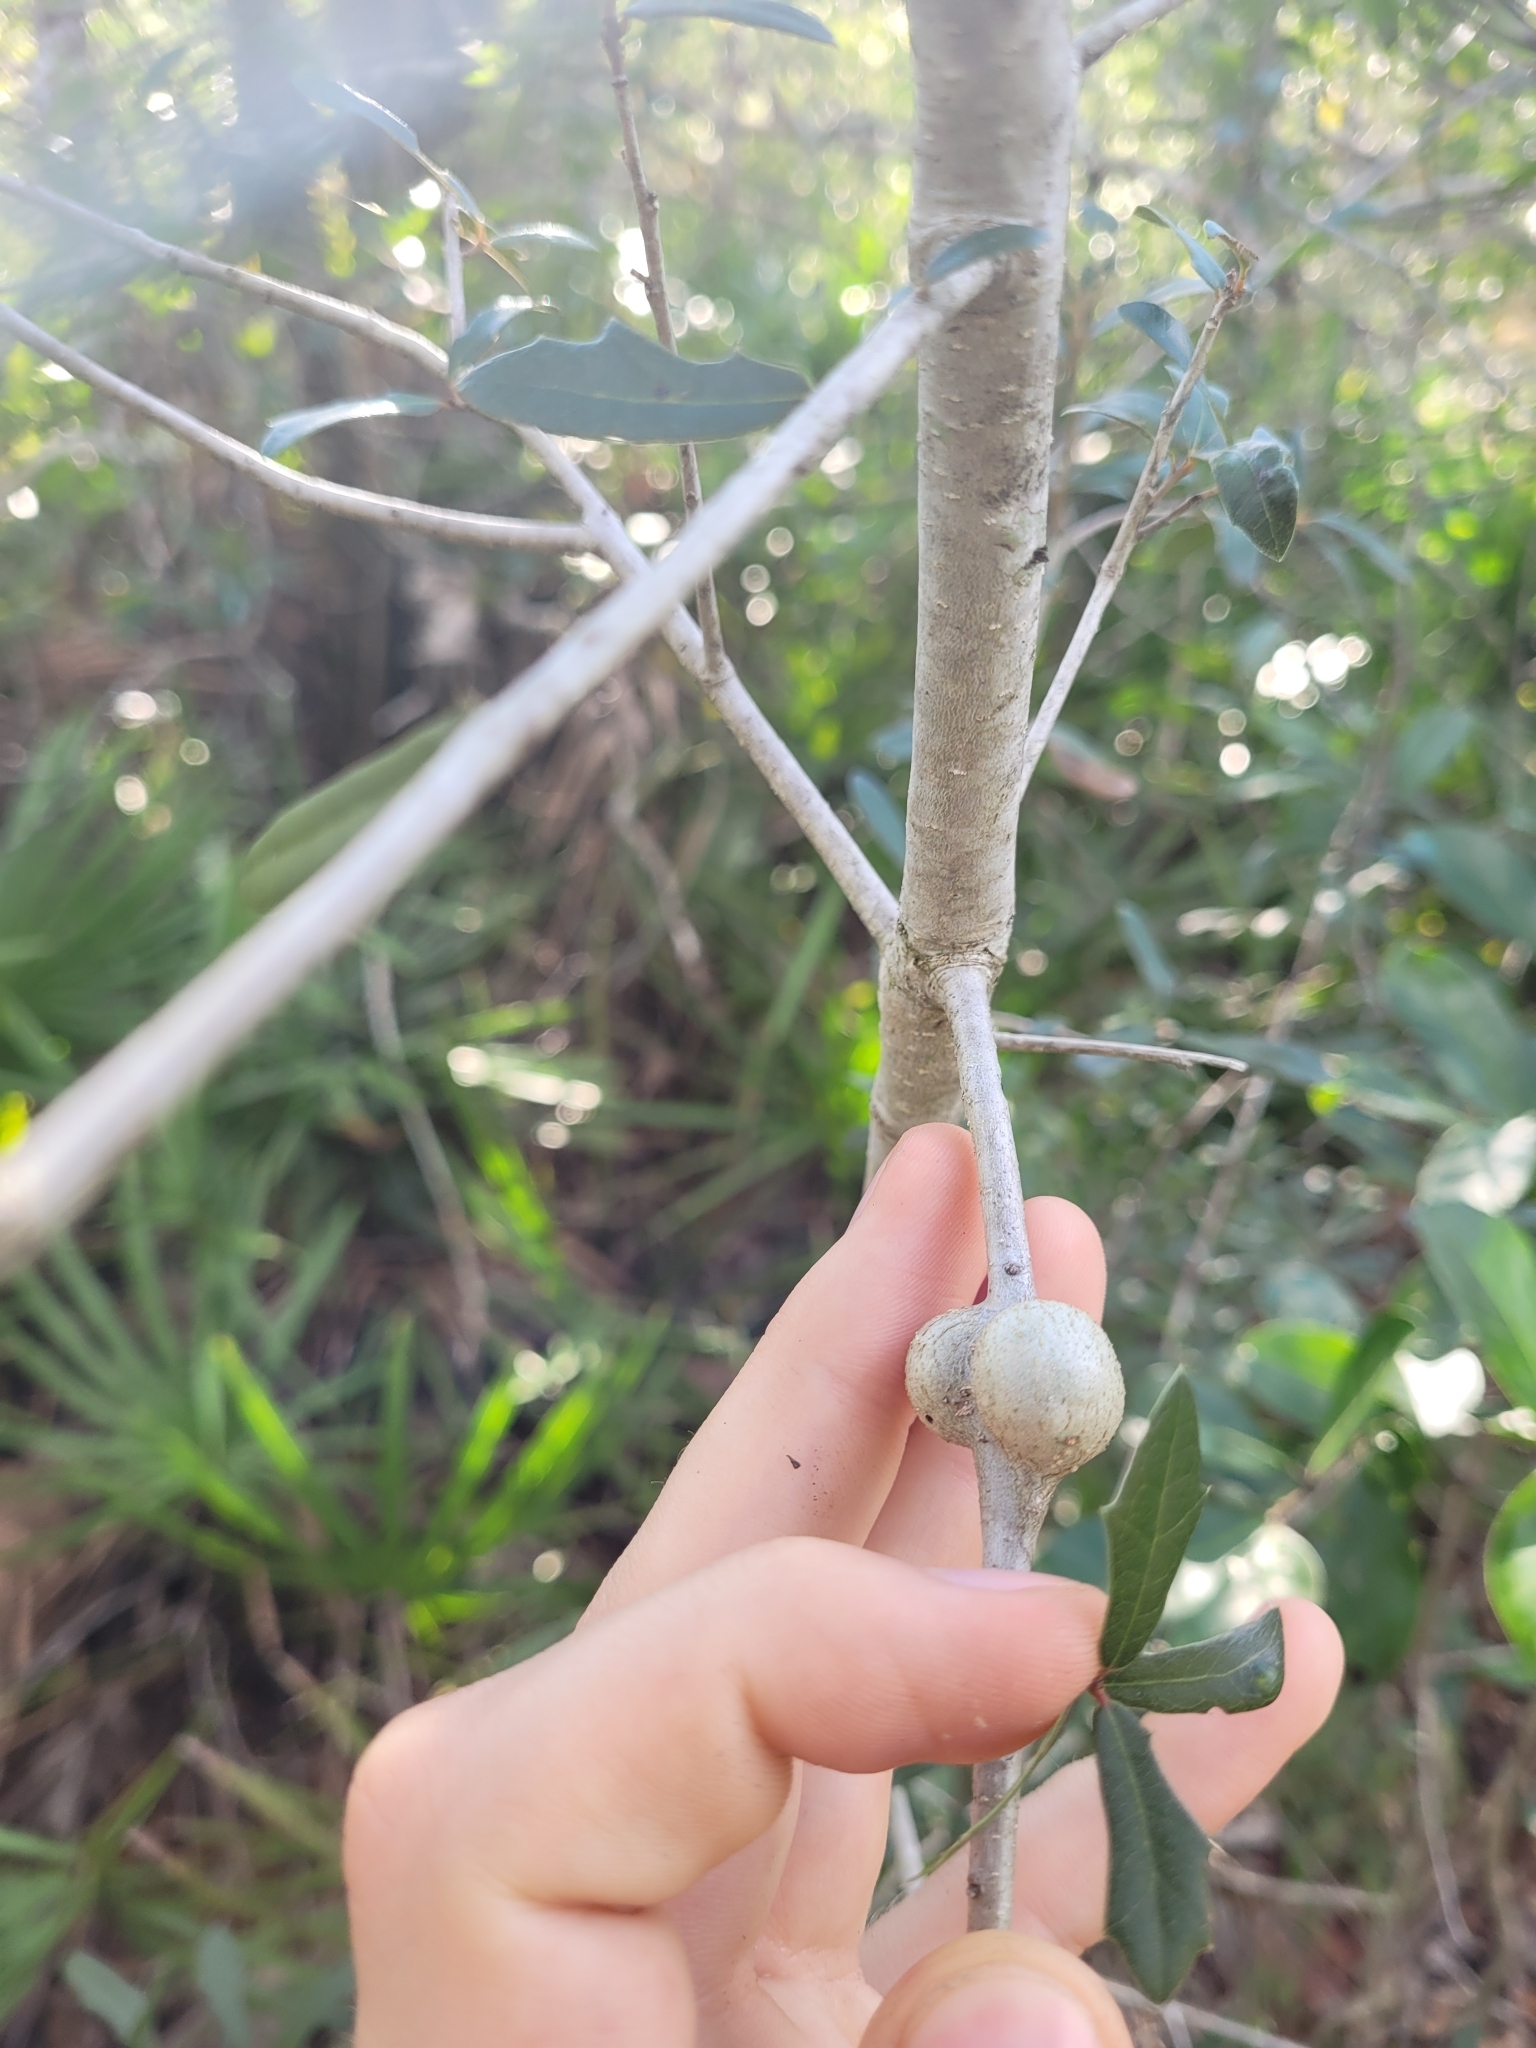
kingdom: Animalia
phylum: Arthropoda
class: Insecta
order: Hymenoptera
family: Cynipidae
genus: Callirhytis
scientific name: Callirhytis
